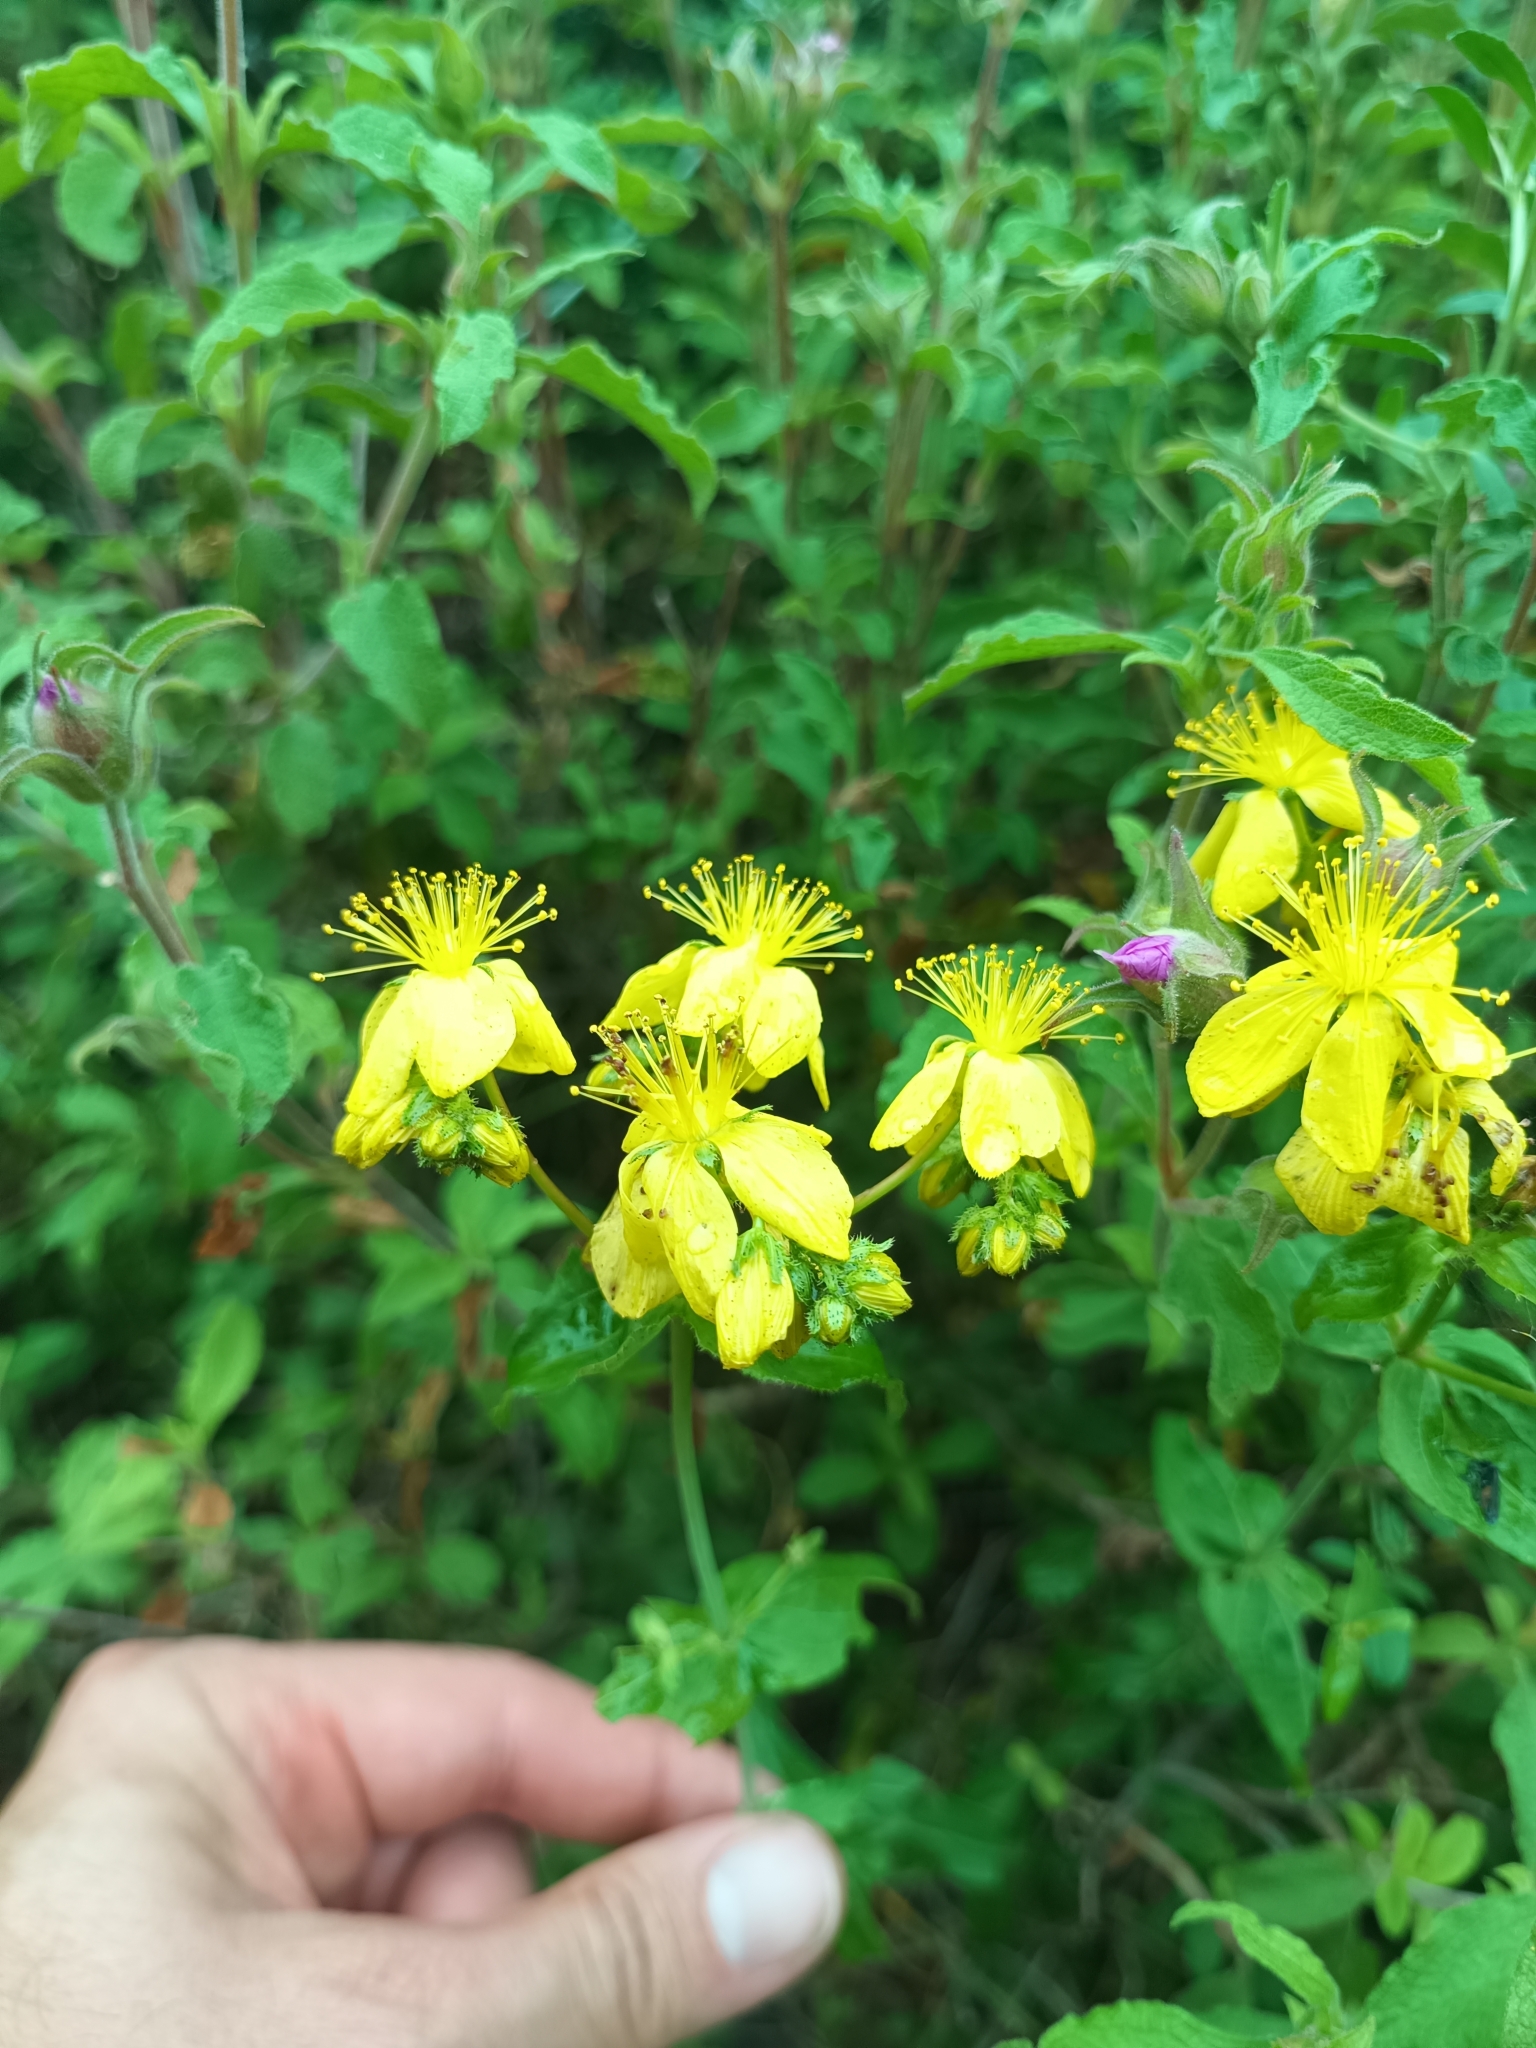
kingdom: Plantae
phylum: Tracheophyta
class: Magnoliopsida
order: Malpighiales
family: Hypericaceae
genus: Hypericum
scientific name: Hypericum perfoliatum
